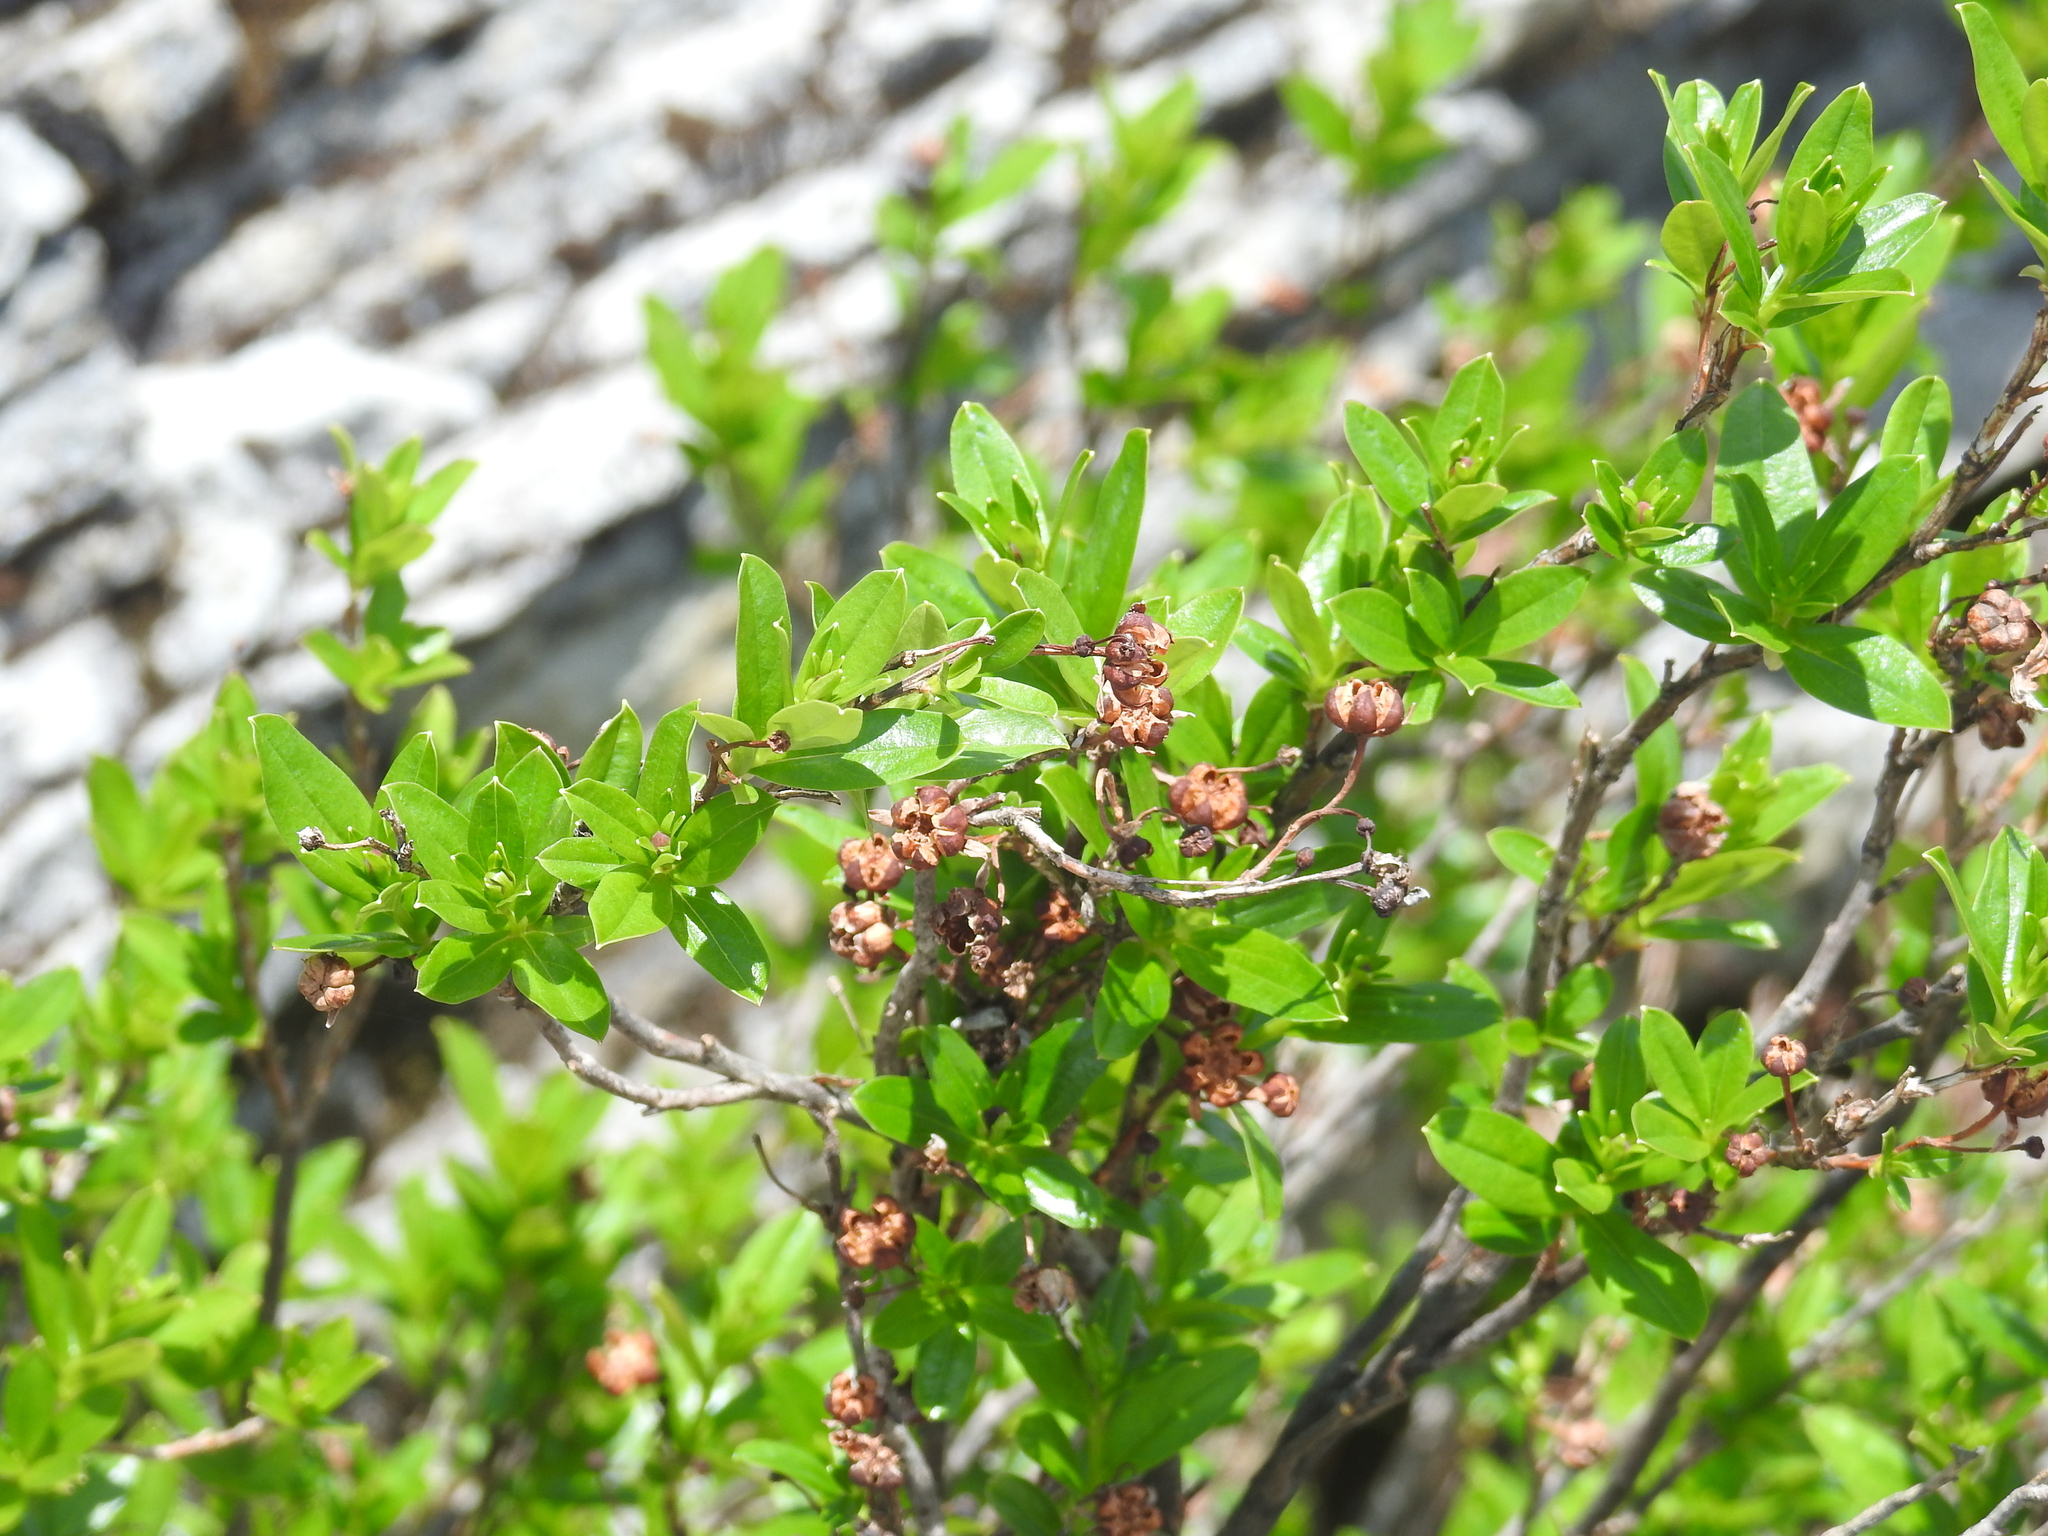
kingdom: Plantae
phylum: Tracheophyta
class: Magnoliopsida
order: Ericales
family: Ericaceae
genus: Elliottia
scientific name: Elliottia pyroliflora
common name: Copperbush
